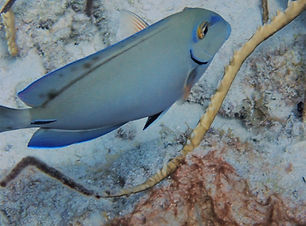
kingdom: Animalia
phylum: Chordata
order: Perciformes
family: Acanthuridae
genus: Acanthurus
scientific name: Acanthurus bahianus
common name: Ocean surgeon
